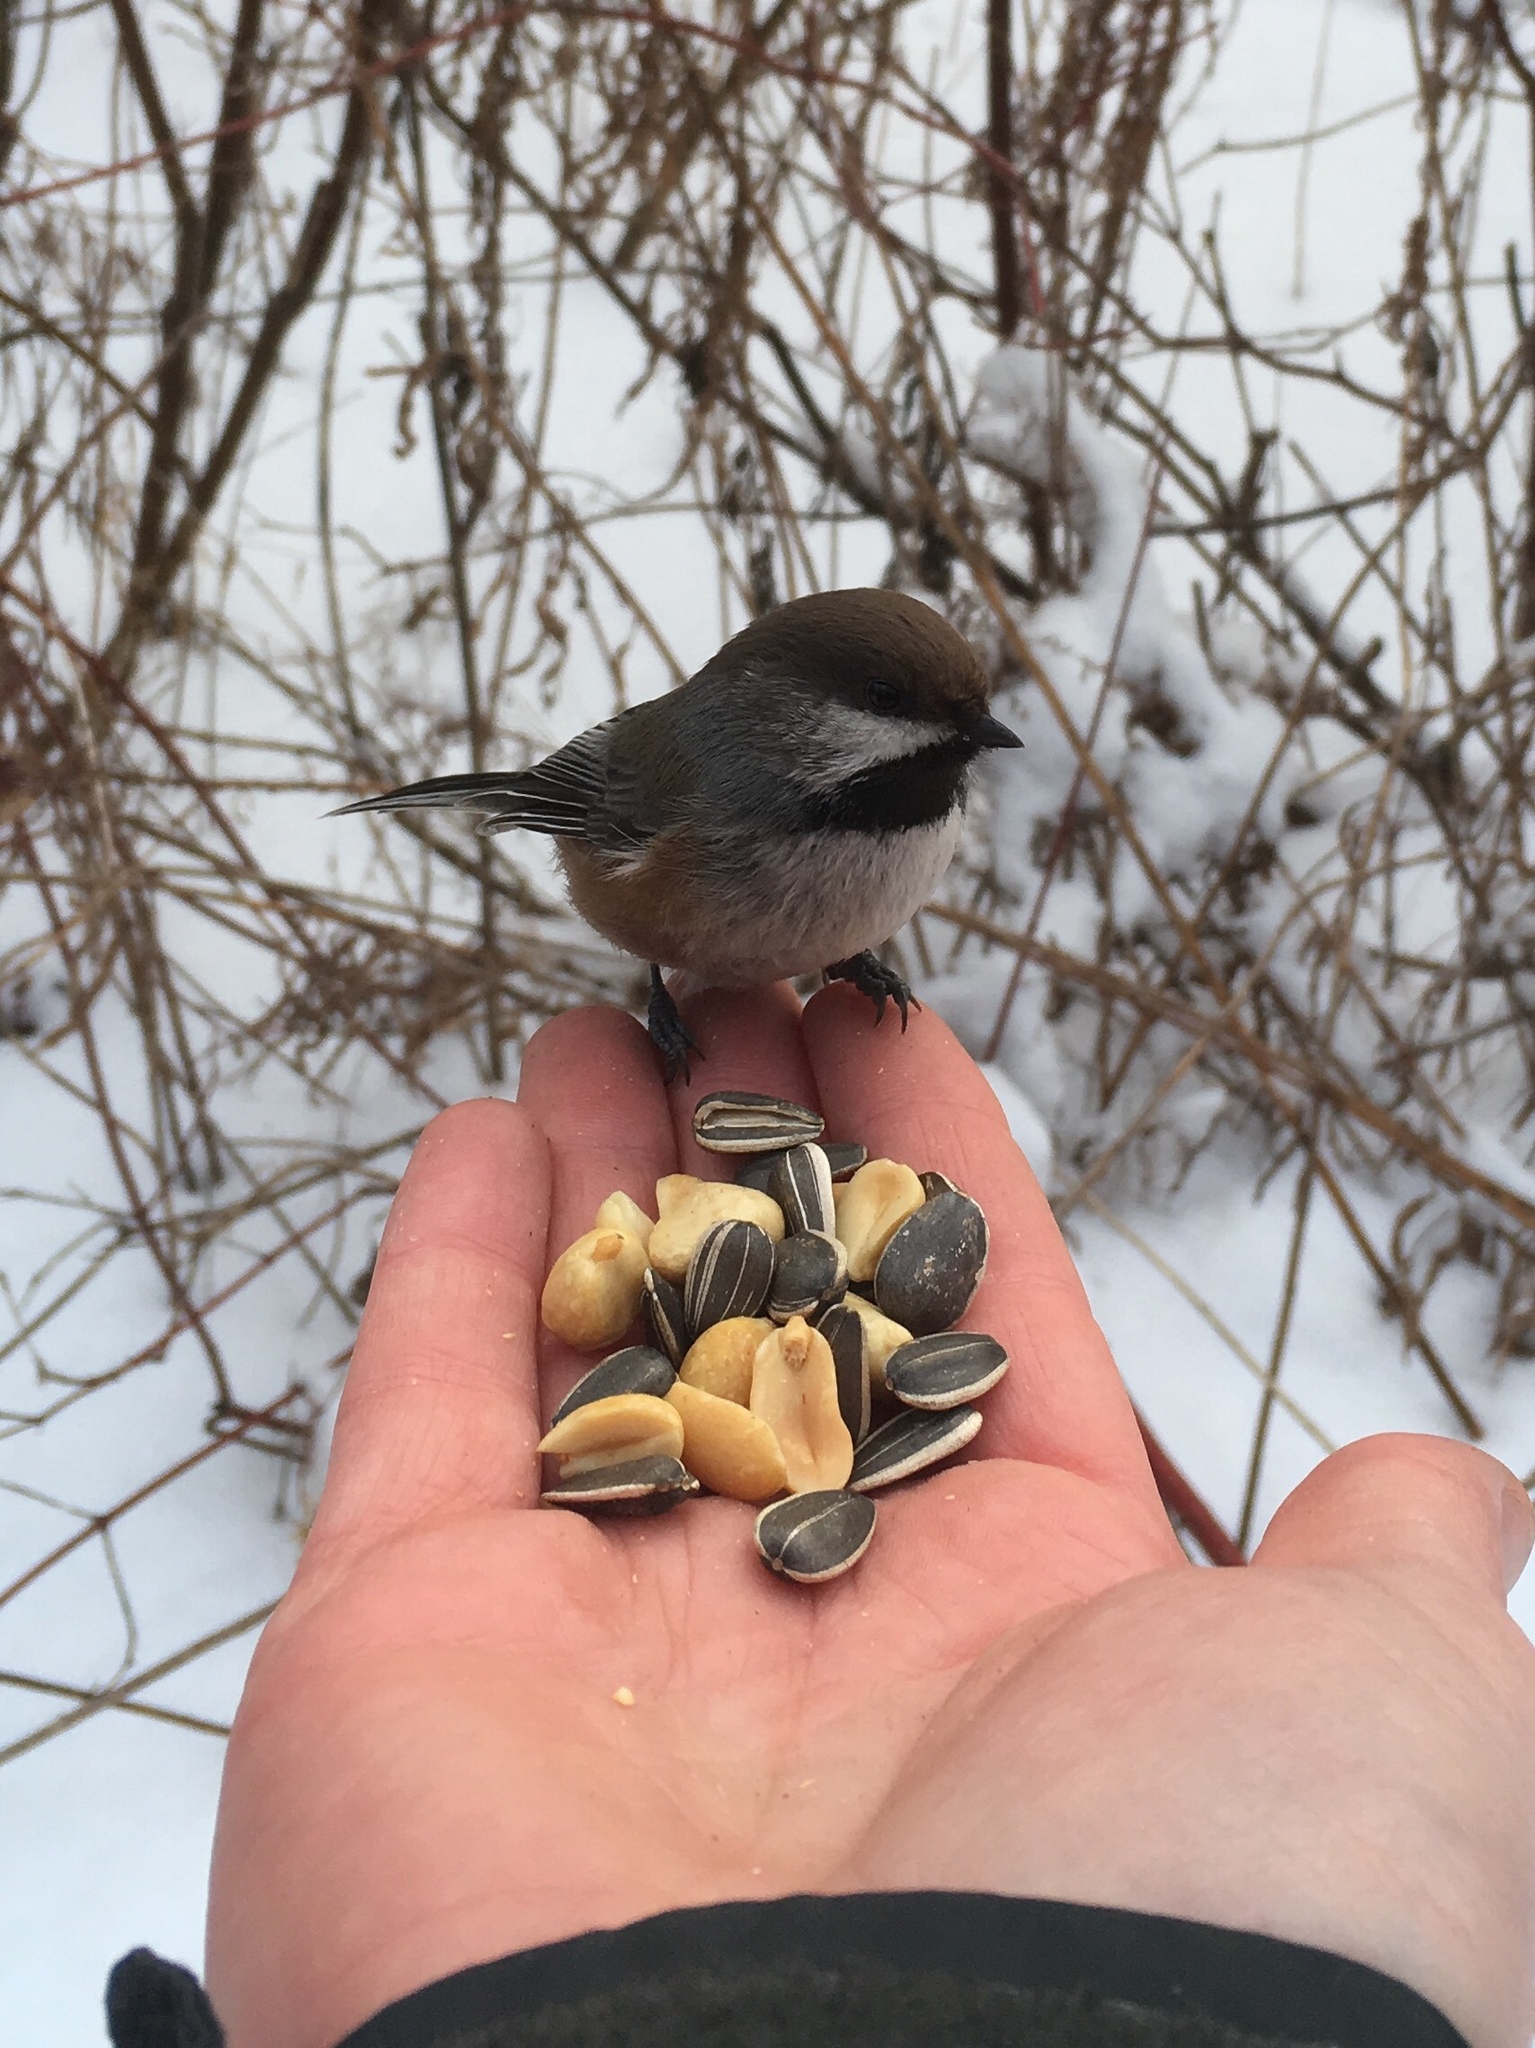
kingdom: Animalia
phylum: Chordata
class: Aves
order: Passeriformes
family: Paridae
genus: Poecile
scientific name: Poecile hudsonicus
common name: Boreal chickadee
